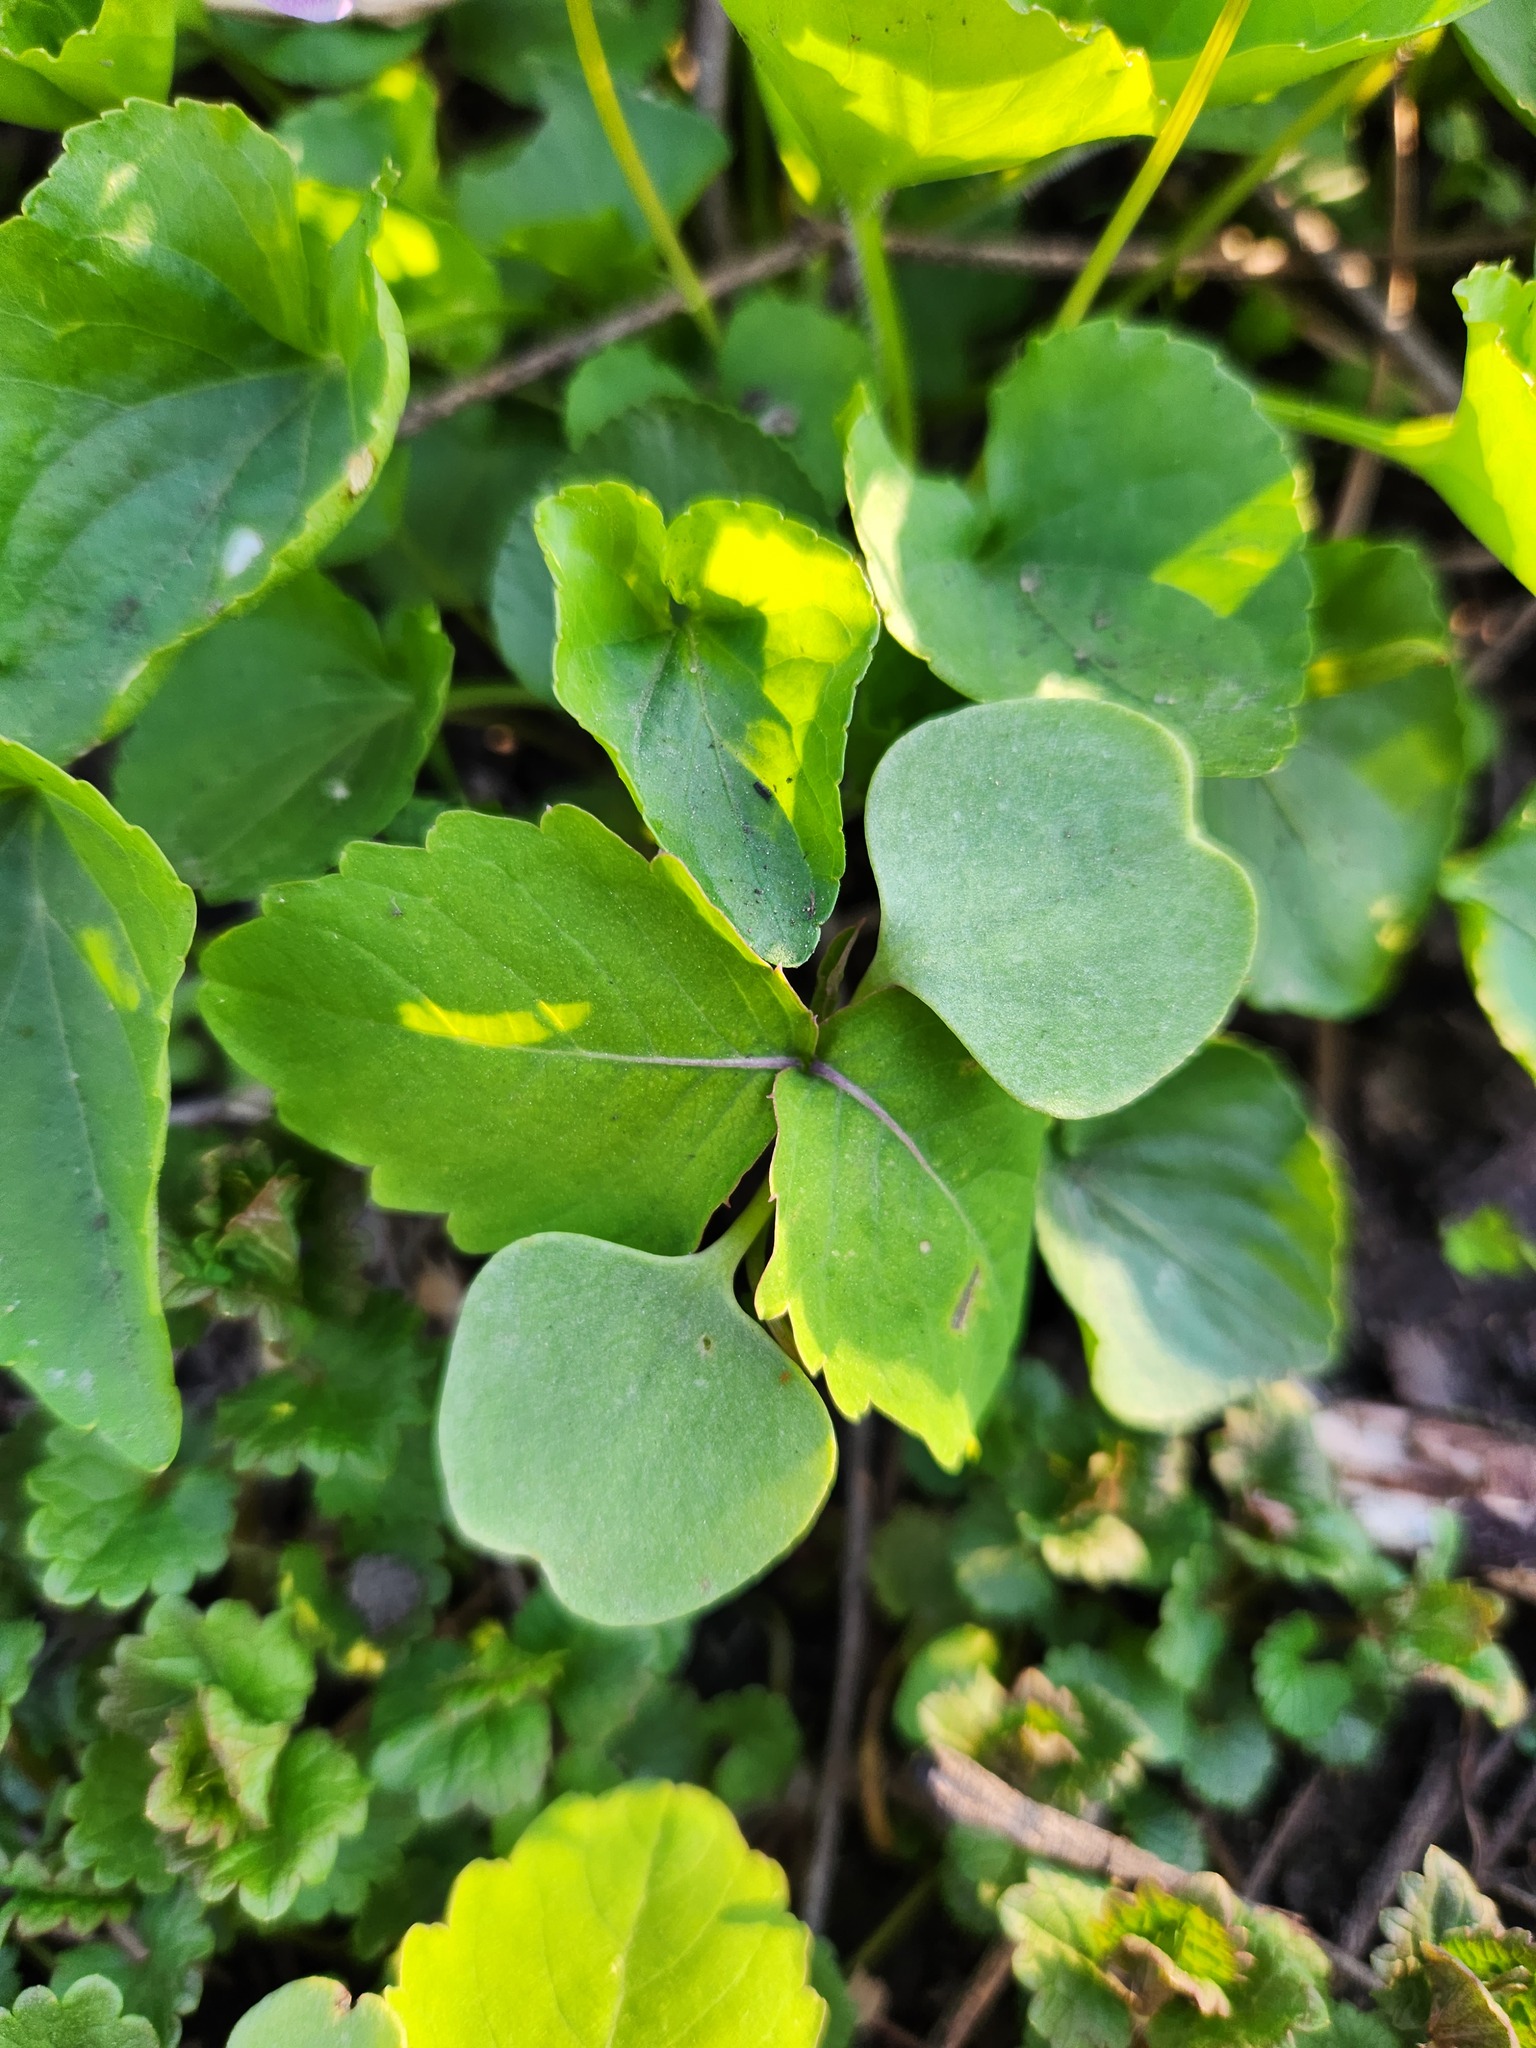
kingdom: Plantae
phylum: Tracheophyta
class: Magnoliopsida
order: Ericales
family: Balsaminaceae
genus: Impatiens
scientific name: Impatiens capensis
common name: Orange balsam
